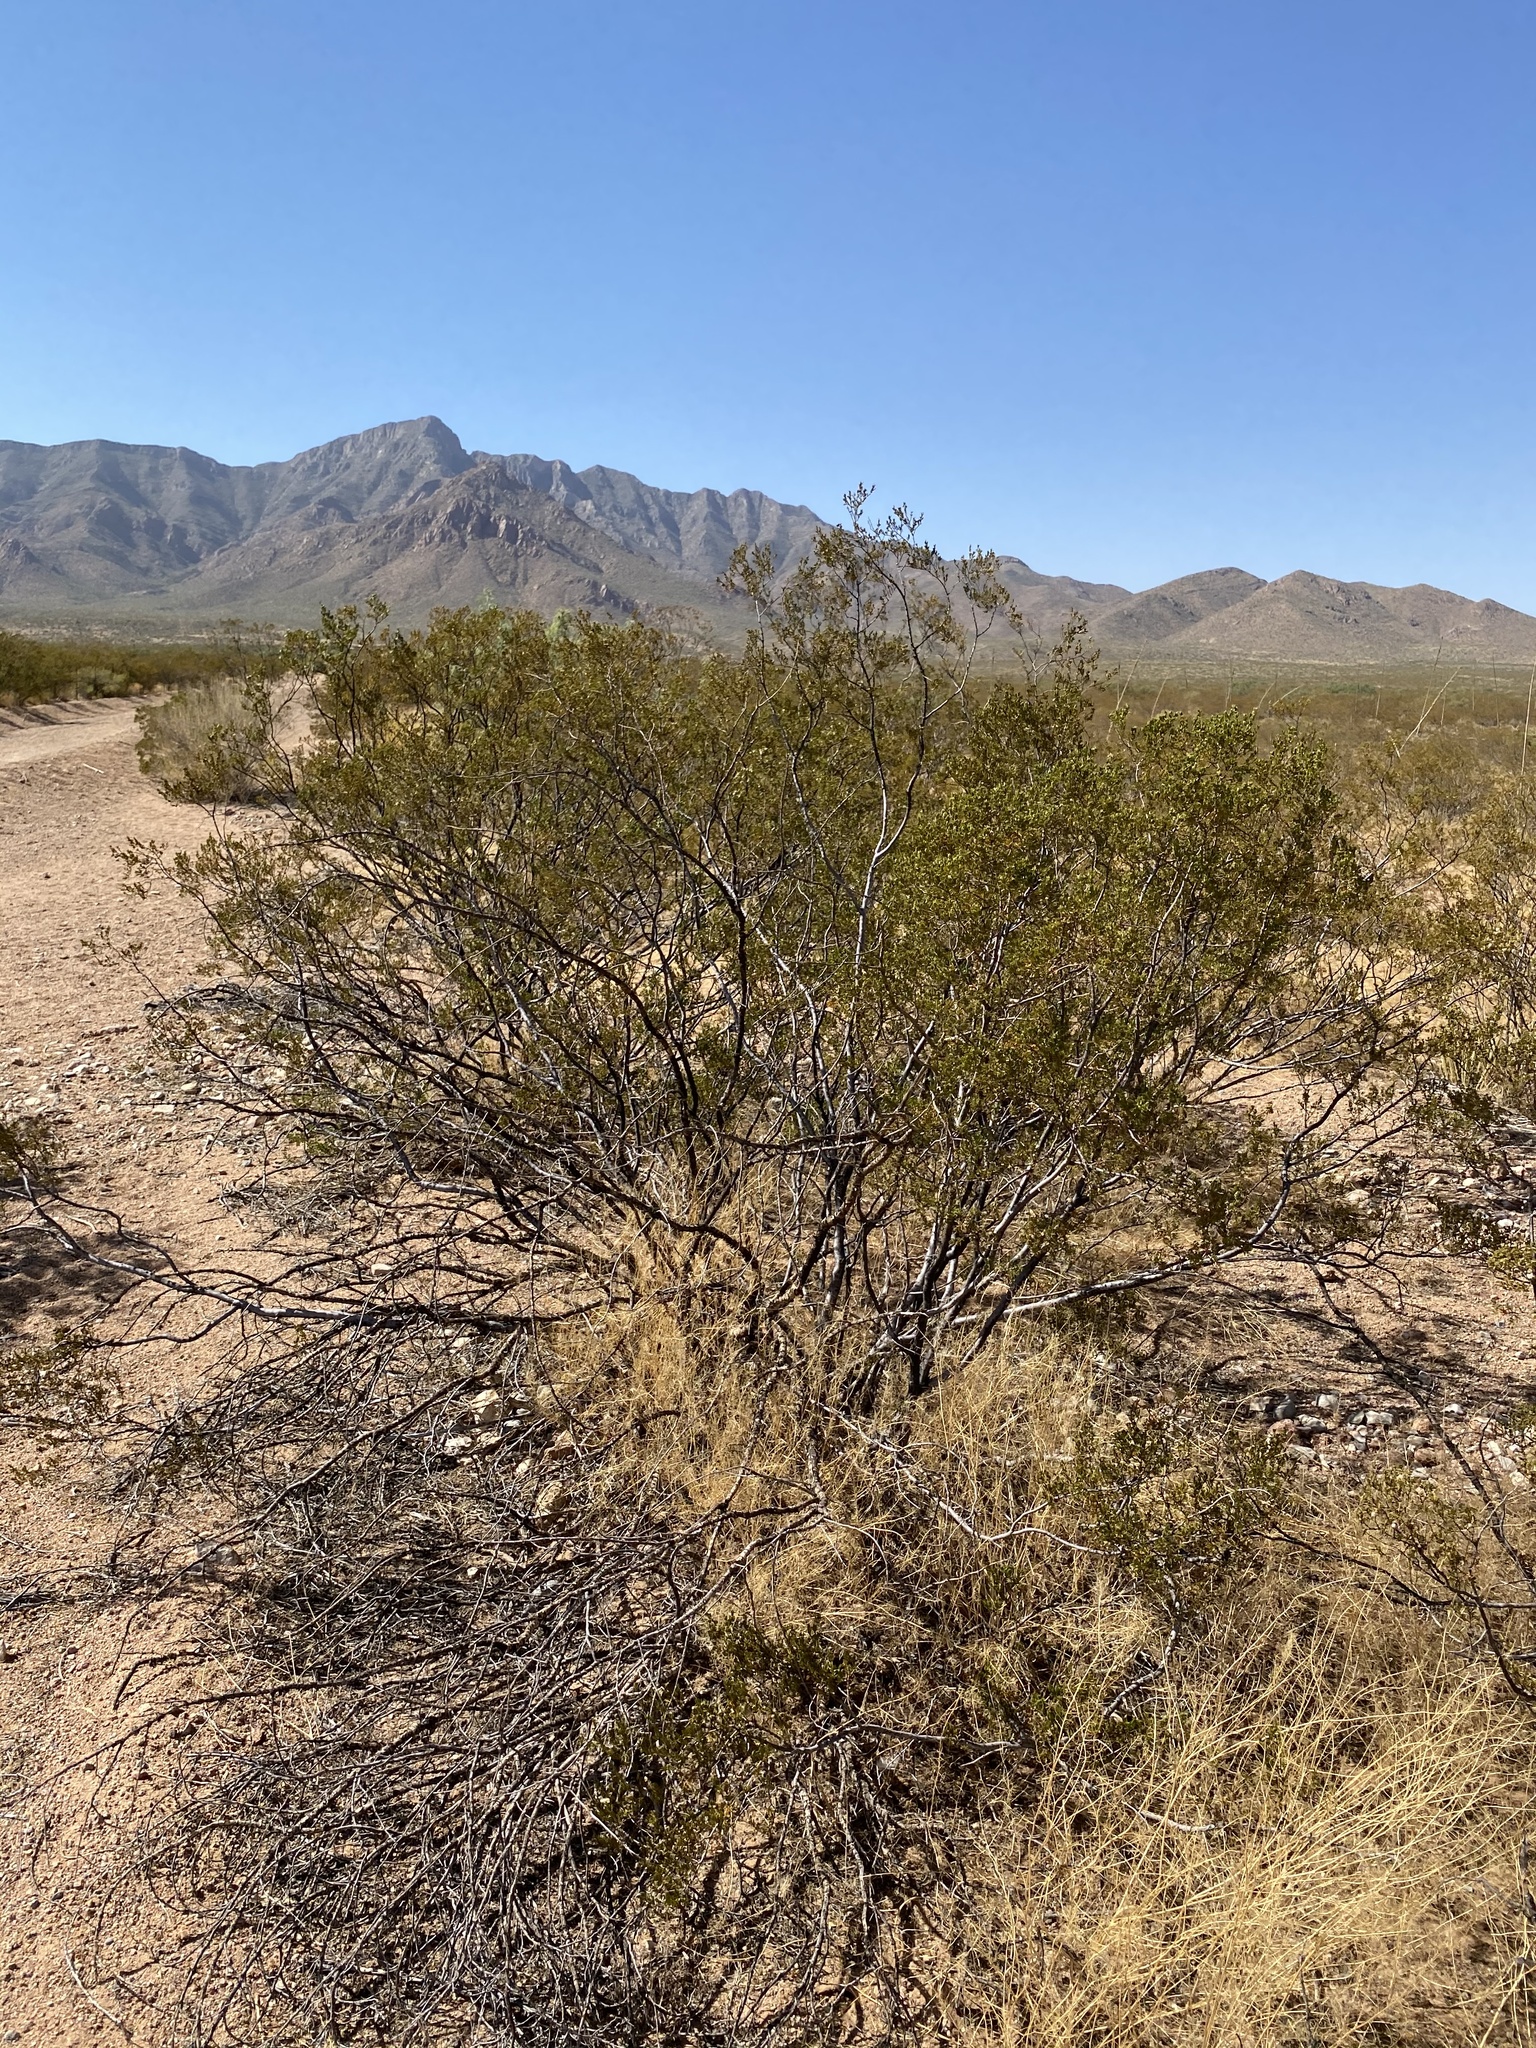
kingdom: Plantae
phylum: Tracheophyta
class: Magnoliopsida
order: Zygophyllales
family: Zygophyllaceae
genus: Larrea
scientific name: Larrea tridentata
